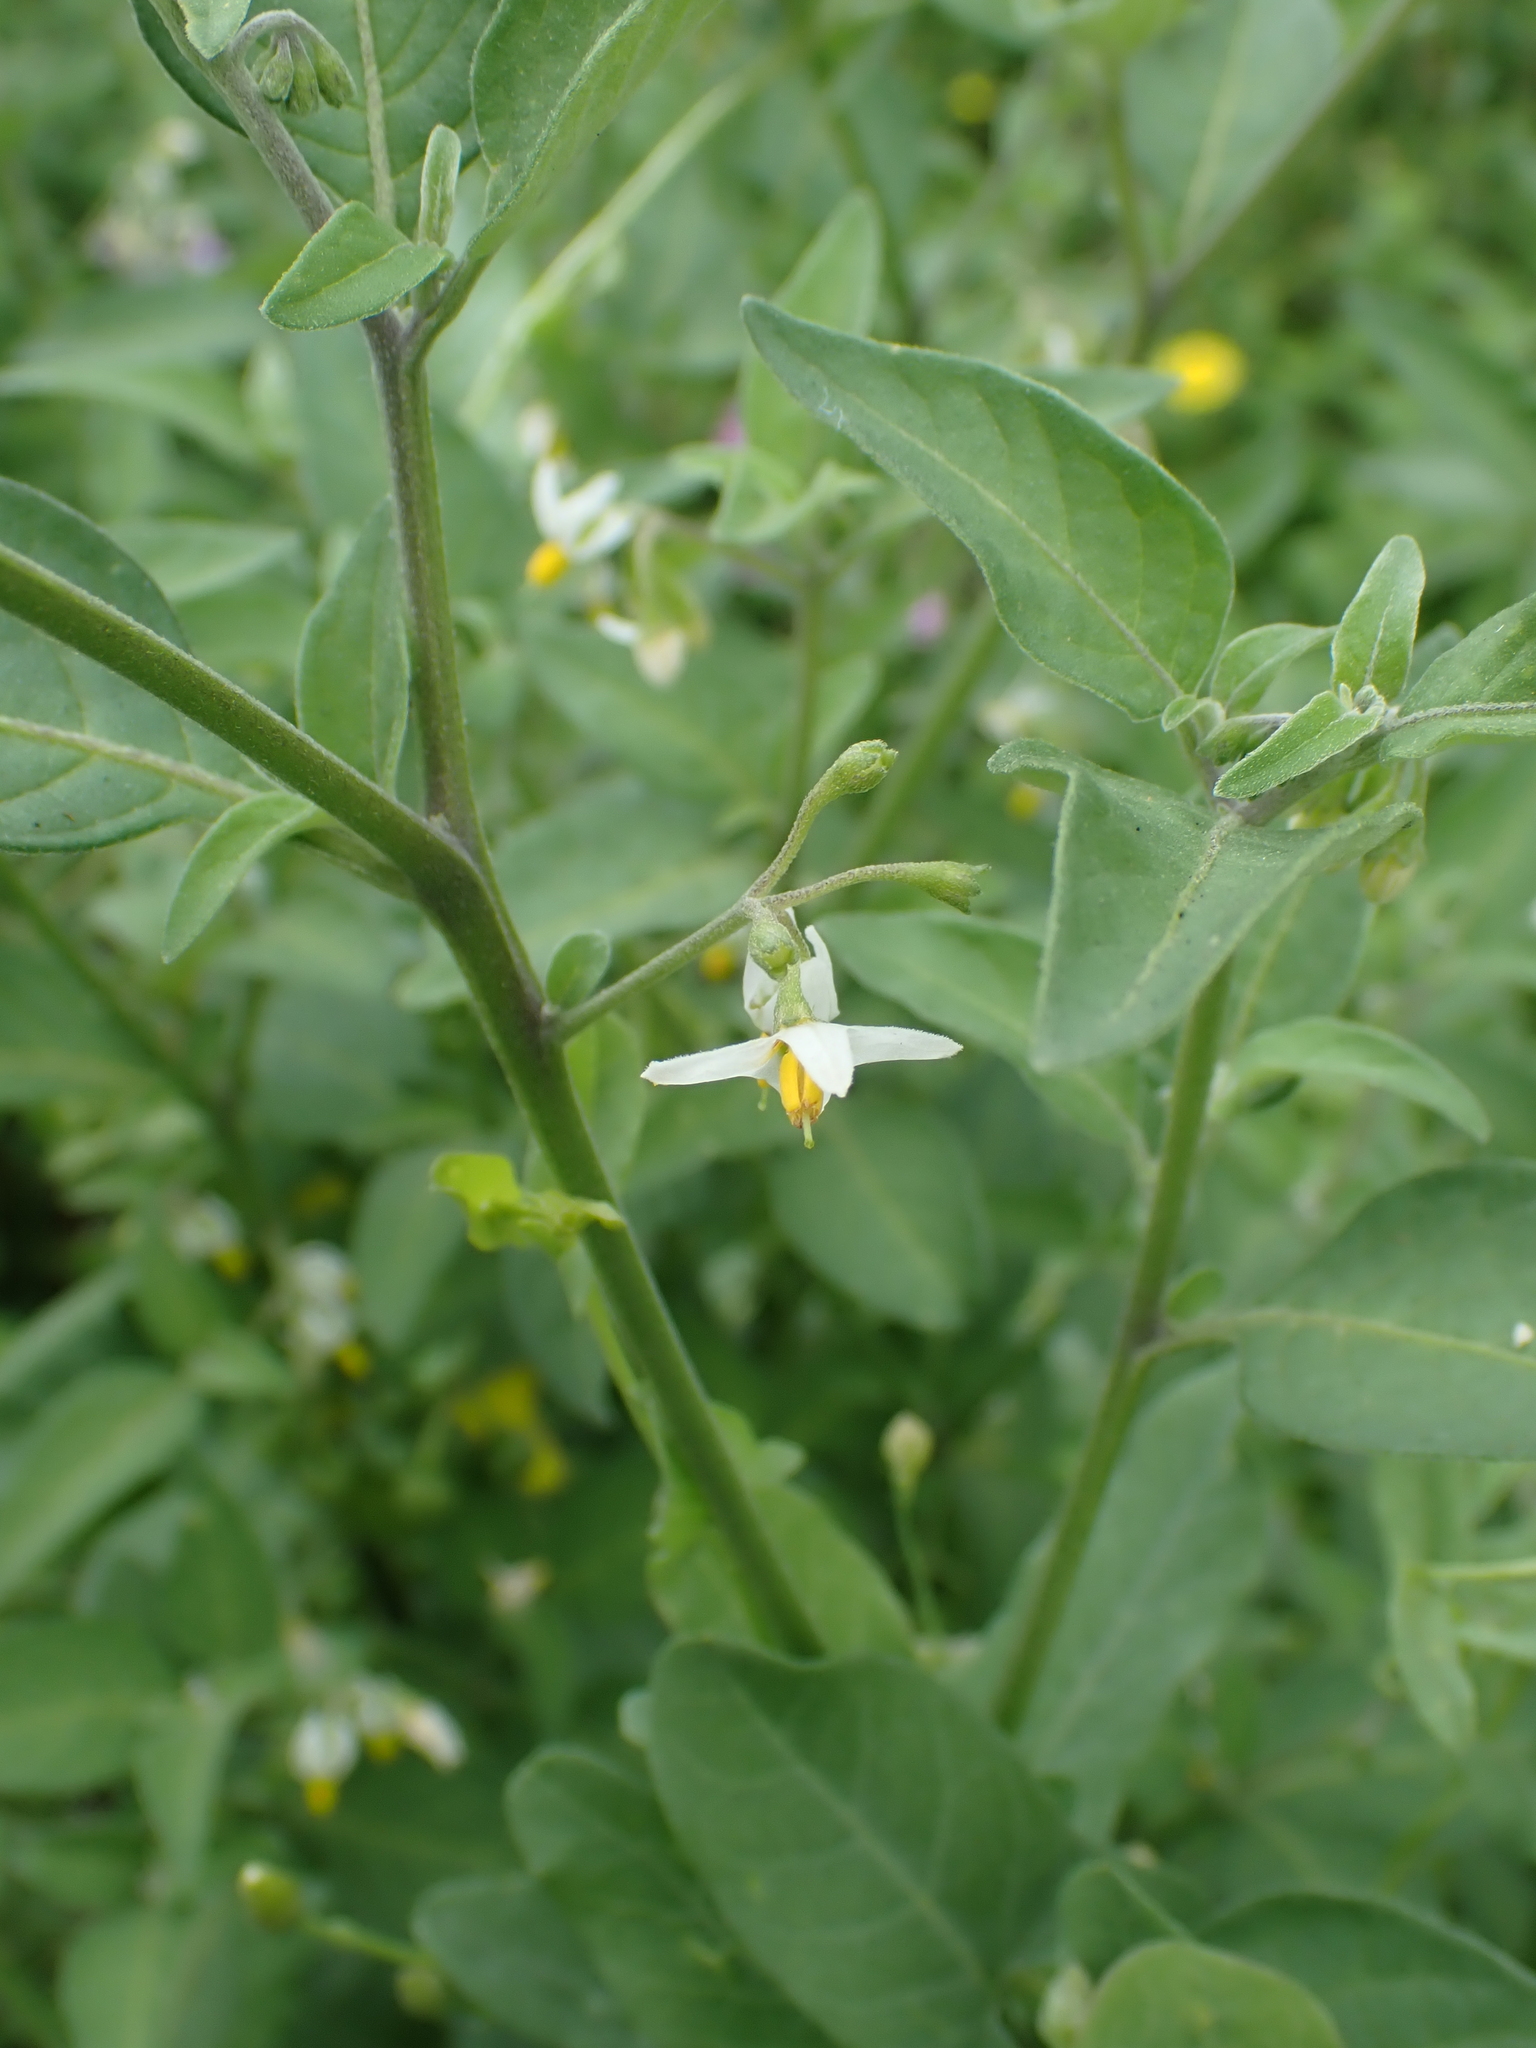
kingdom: Plantae
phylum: Tracheophyta
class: Magnoliopsida
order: Solanales
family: Solanaceae
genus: Solanum
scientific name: Solanum chenopodioides
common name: Tall nightshade
